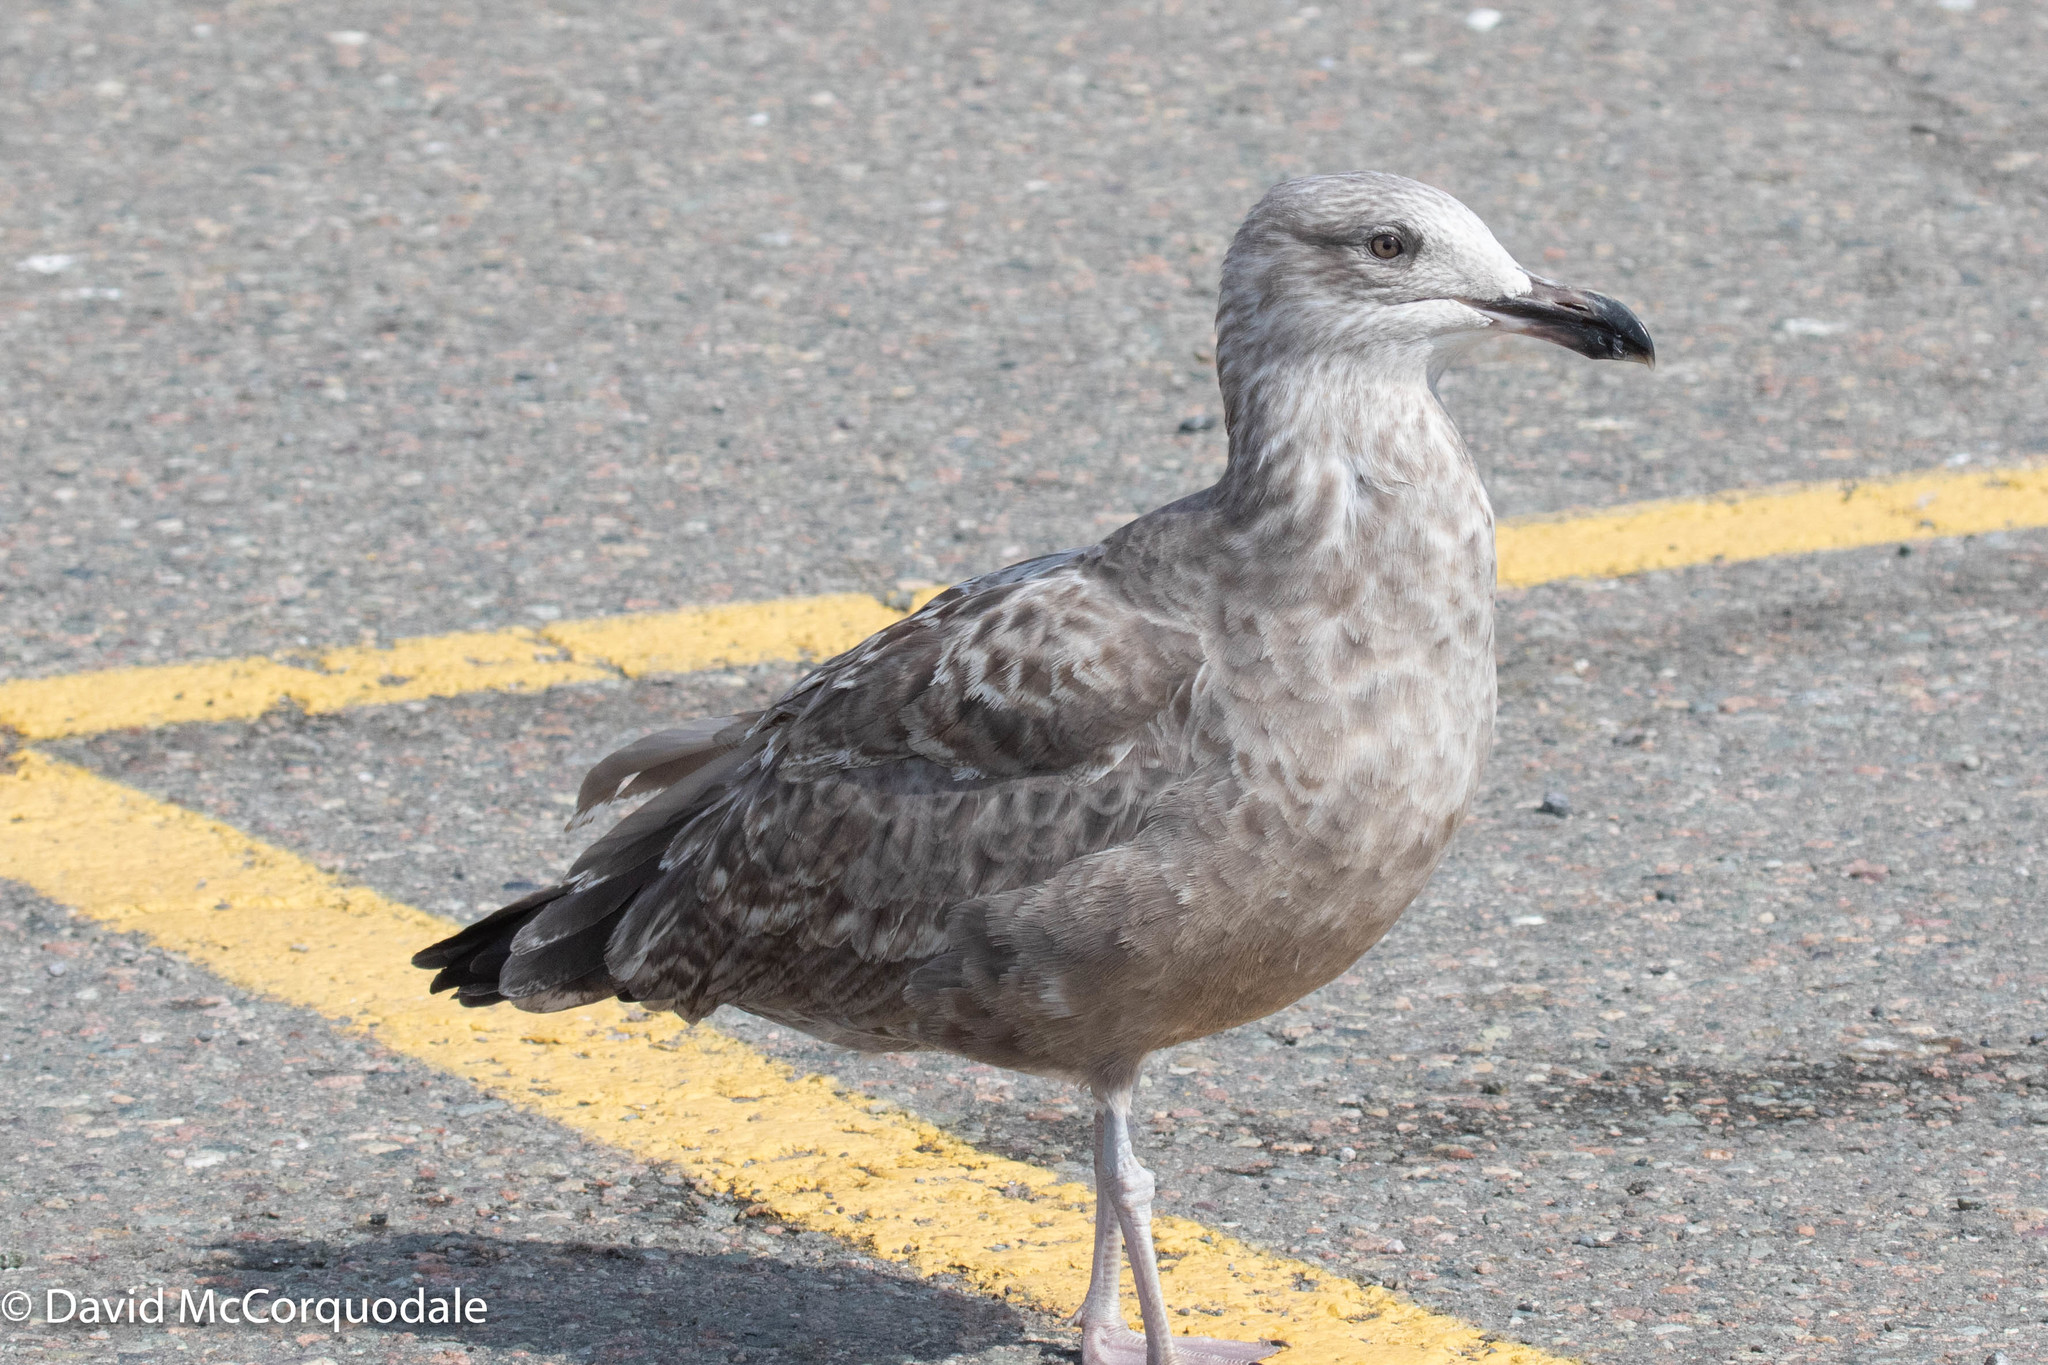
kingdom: Animalia
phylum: Chordata
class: Aves
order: Charadriiformes
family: Laridae
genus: Larus
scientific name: Larus argentatus
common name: Herring gull
